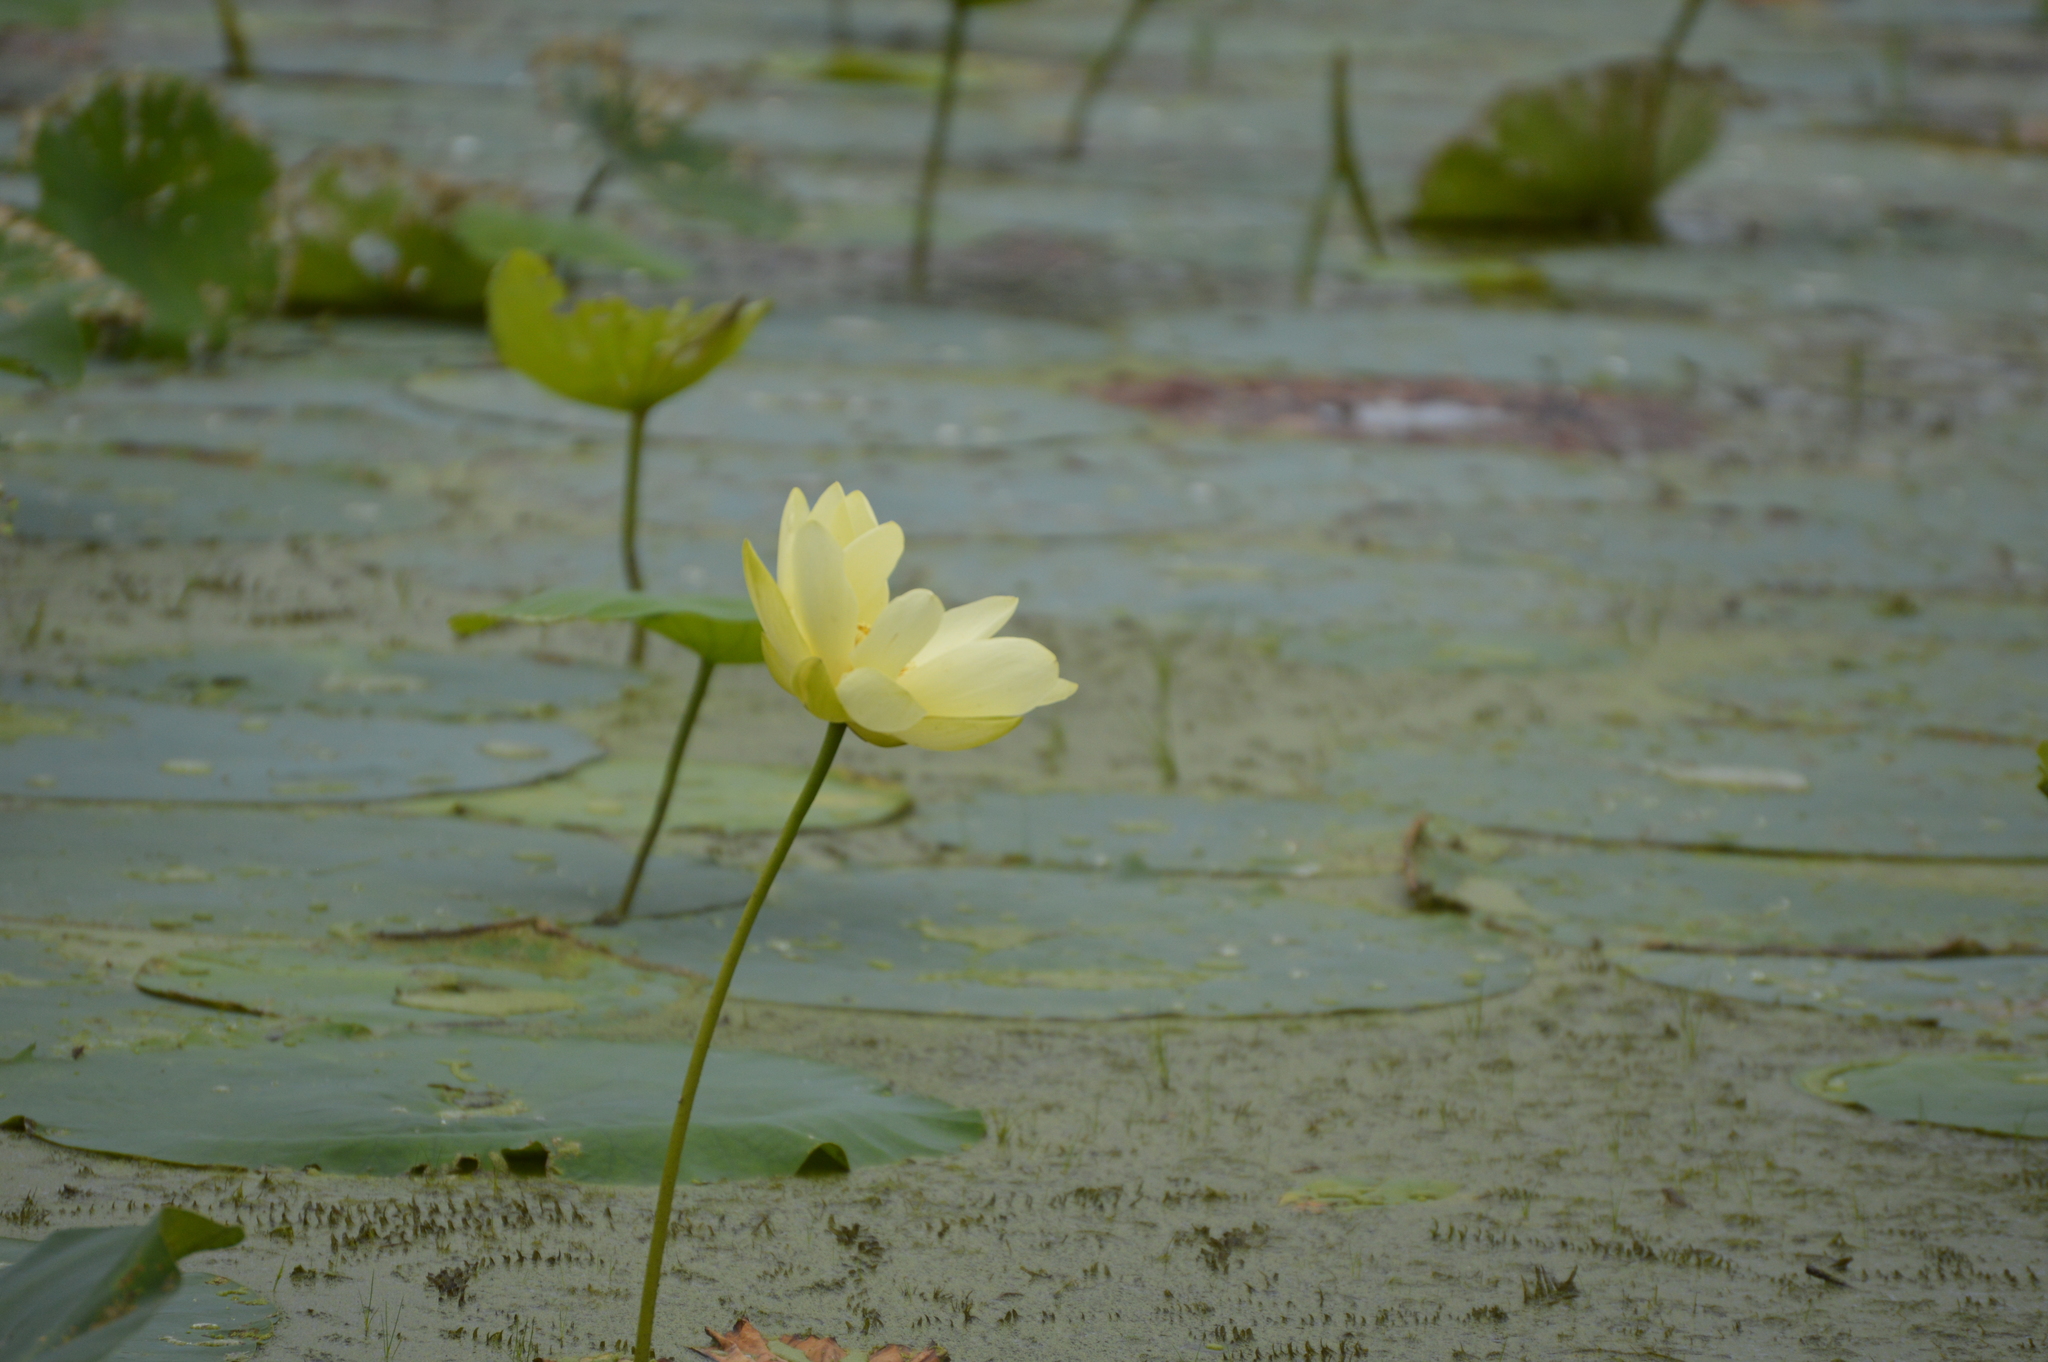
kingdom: Plantae
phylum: Tracheophyta
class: Magnoliopsida
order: Proteales
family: Nelumbonaceae
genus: Nelumbo
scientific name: Nelumbo lutea
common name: American lotus
